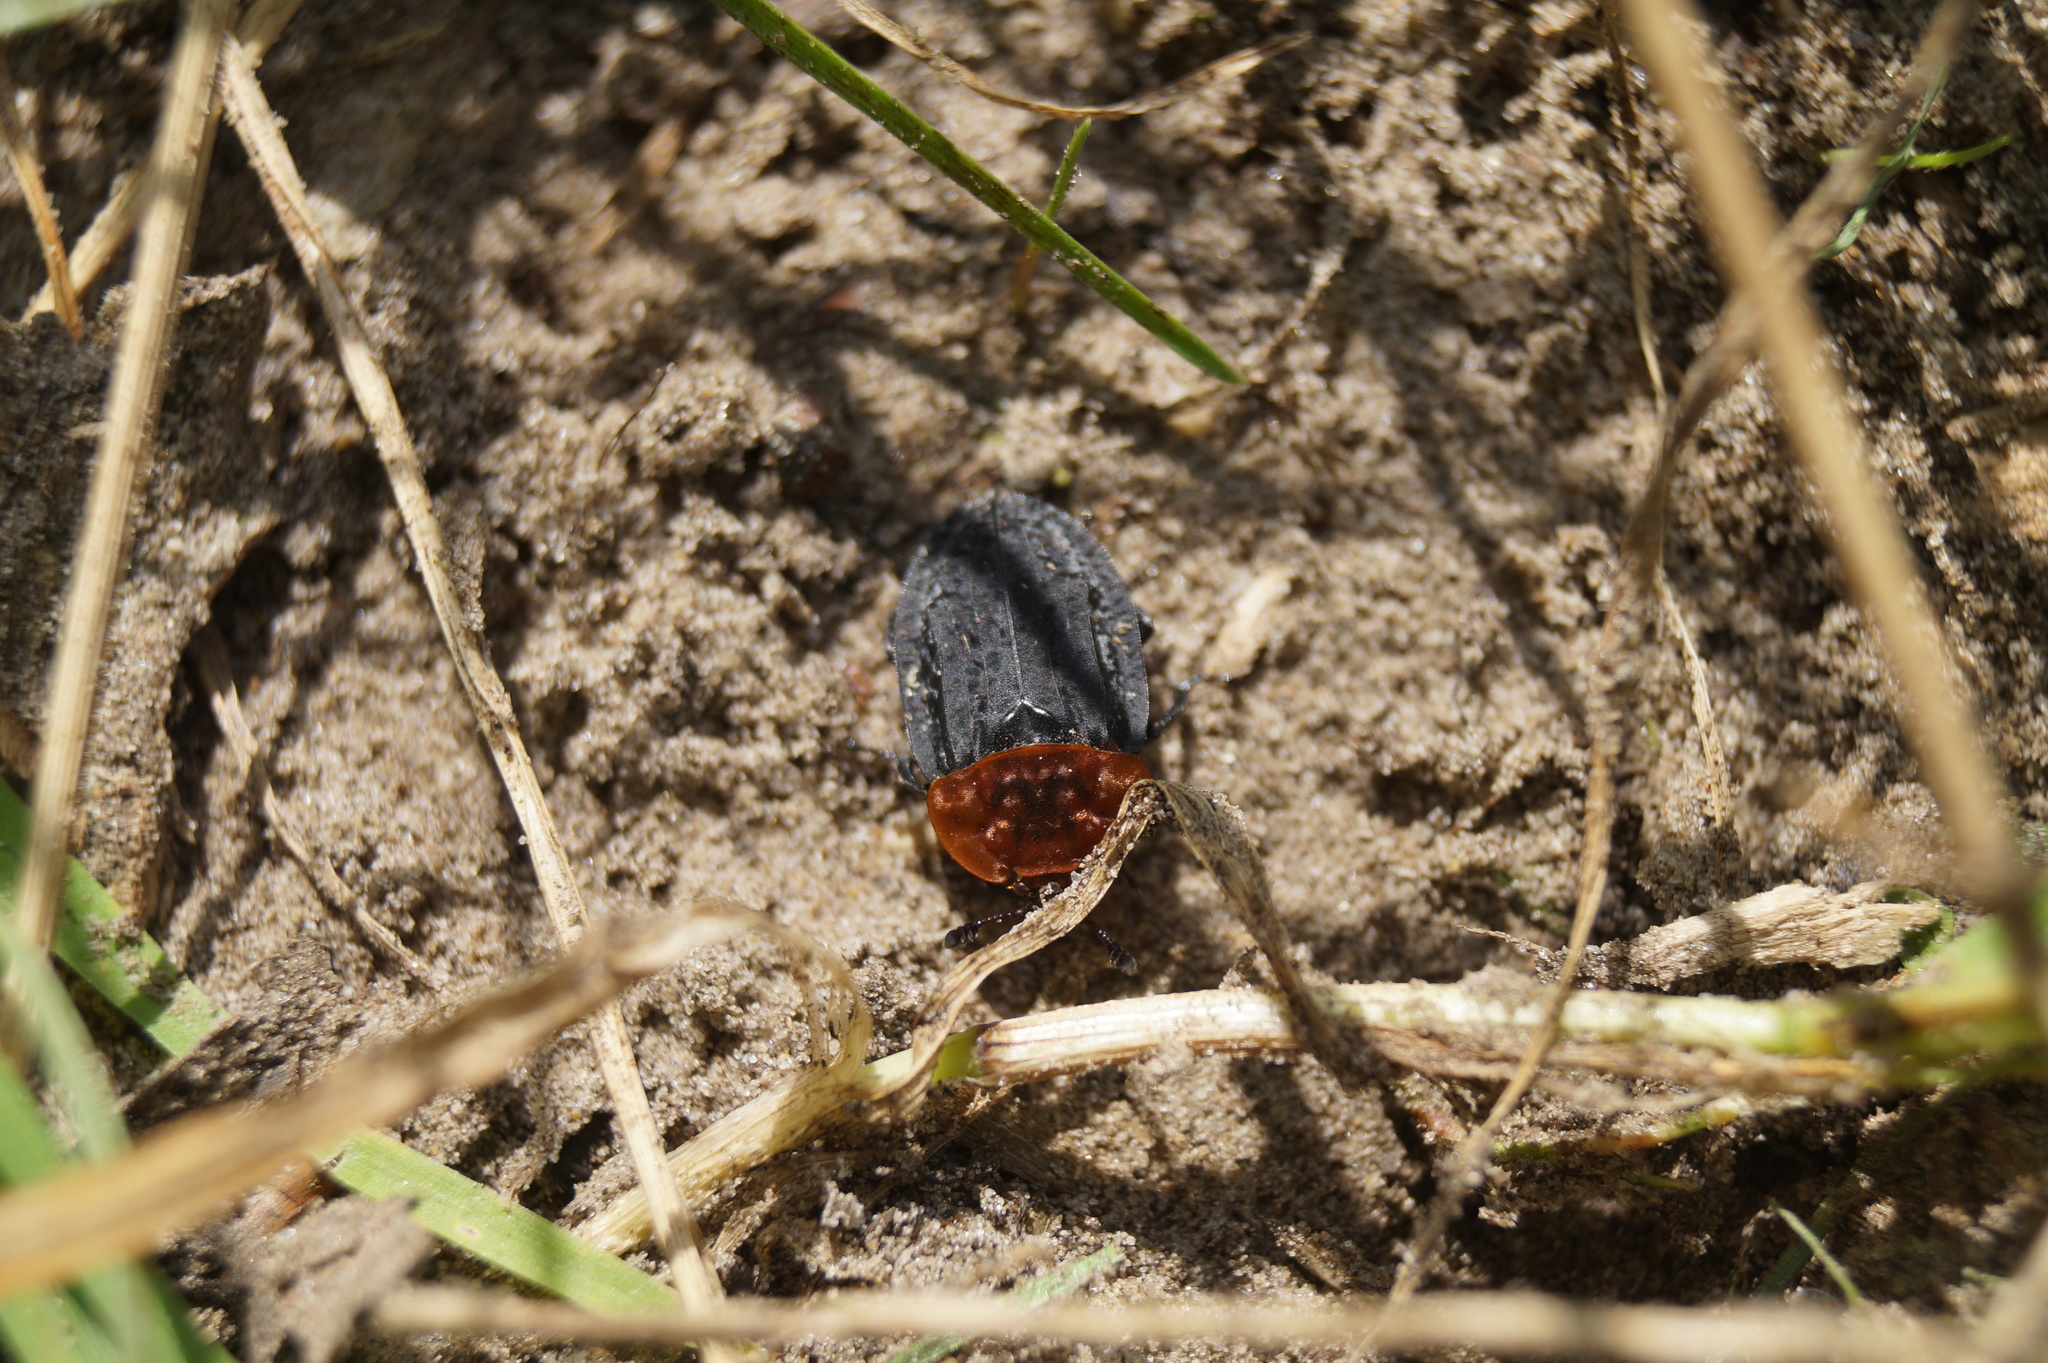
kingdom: Animalia
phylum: Arthropoda
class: Insecta
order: Coleoptera
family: Staphylinidae
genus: Oiceoptoma
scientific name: Oiceoptoma thoracicum
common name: Red-breasted carrion beetle
